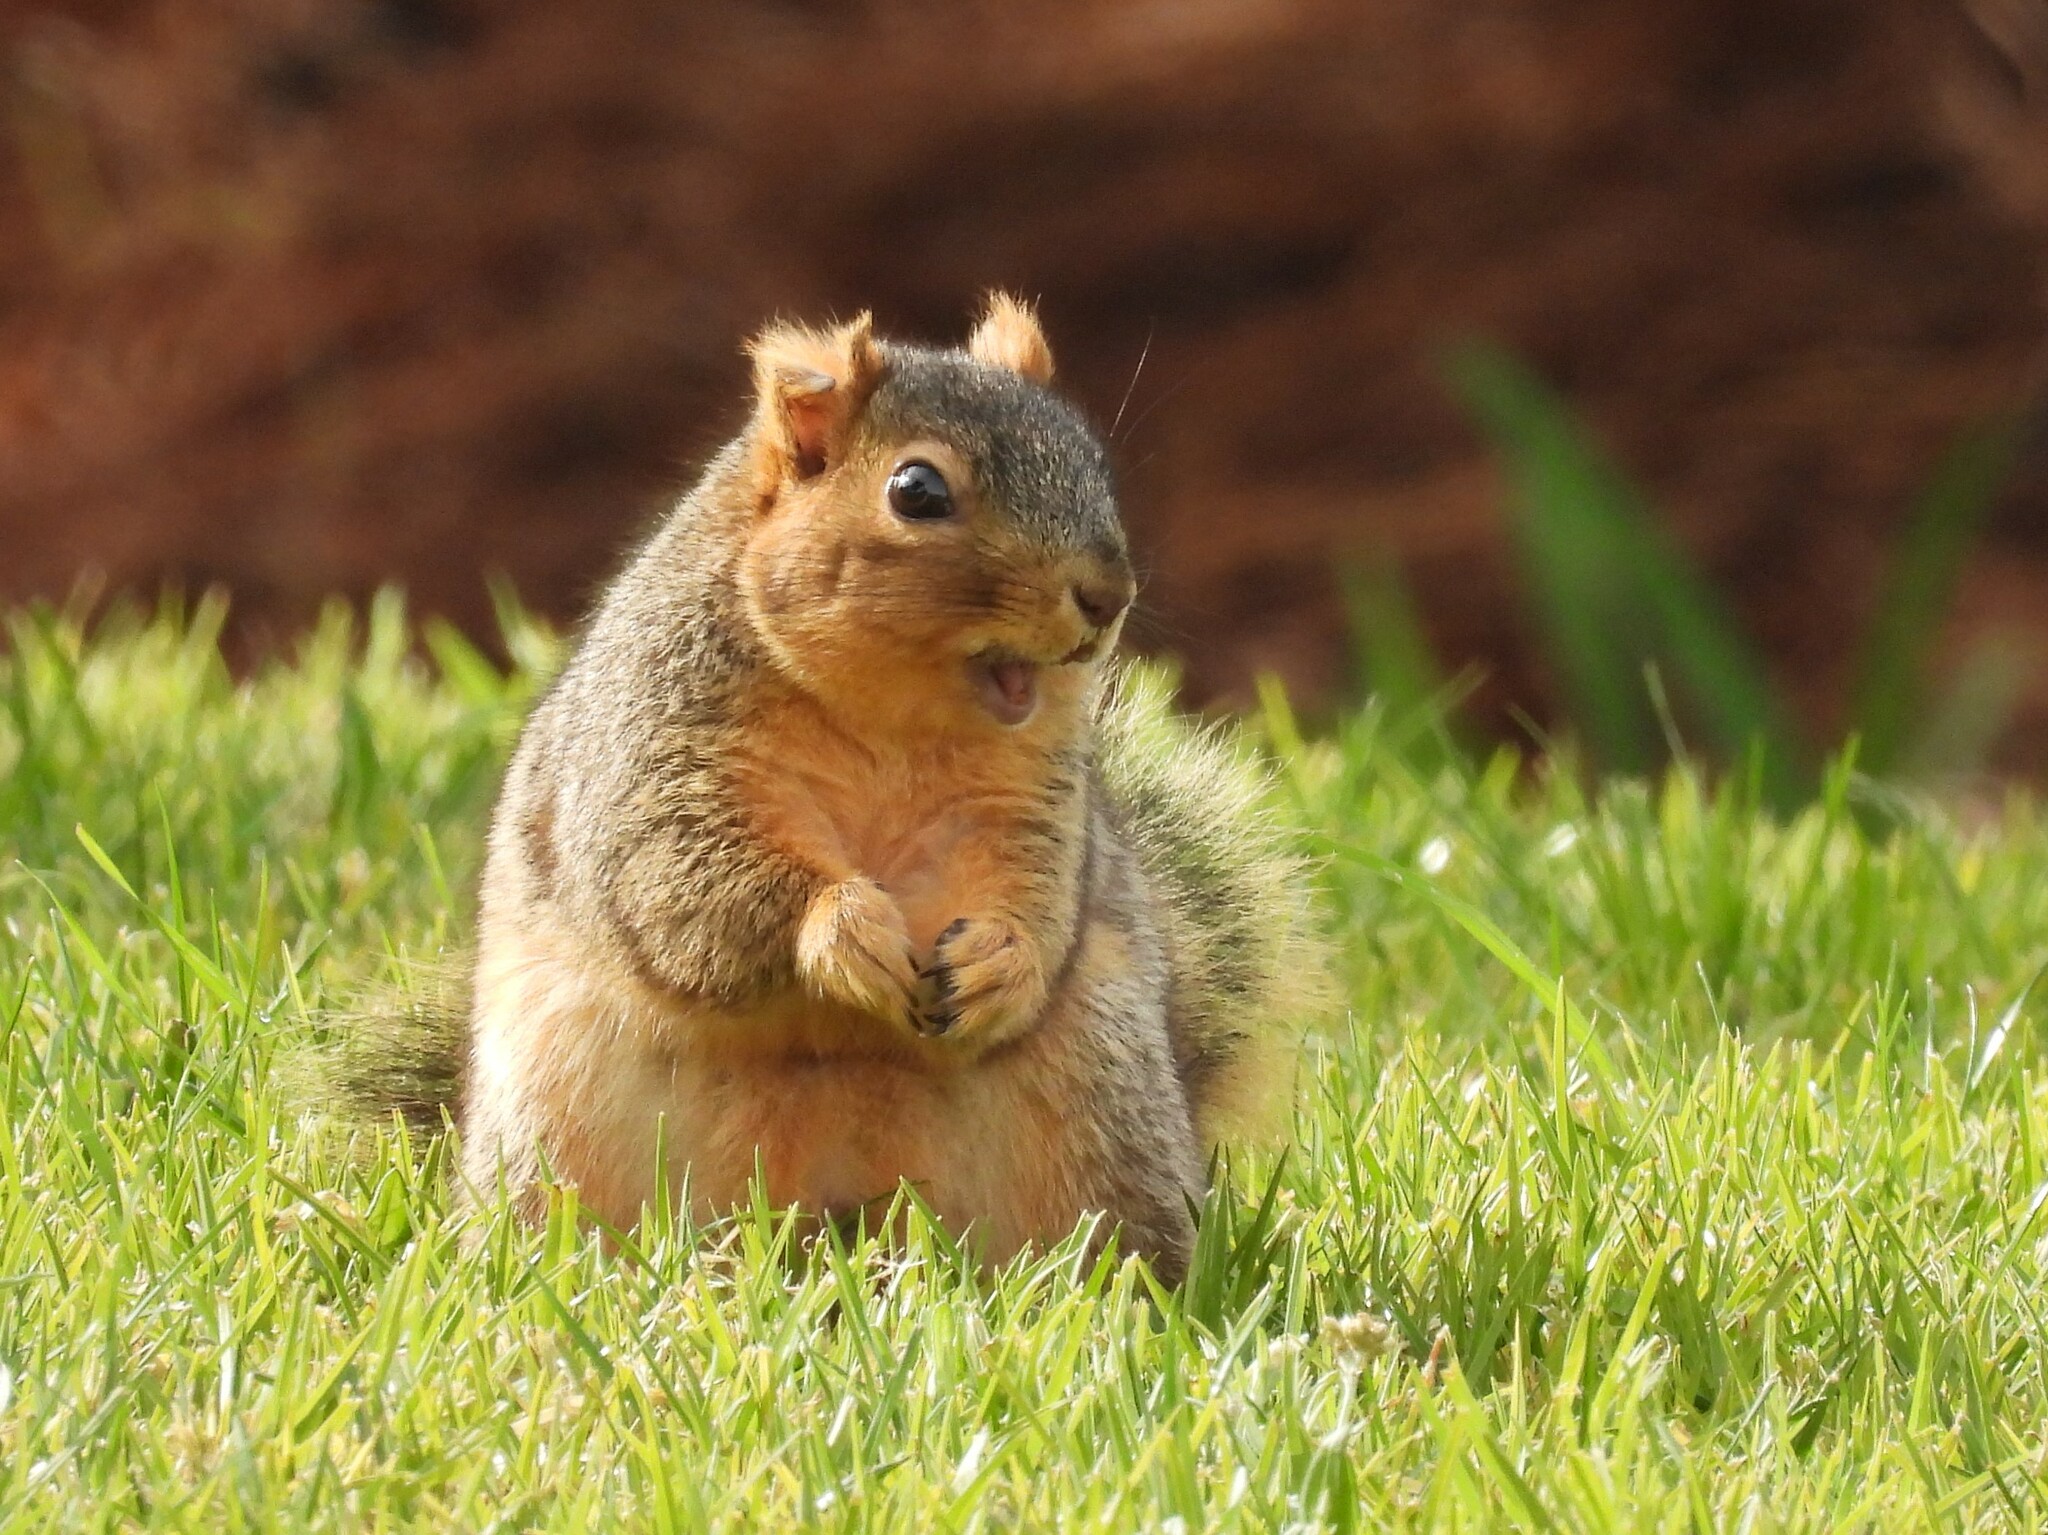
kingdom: Animalia
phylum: Chordata
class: Mammalia
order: Rodentia
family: Sciuridae
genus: Sciurus
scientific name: Sciurus niger
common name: Fox squirrel
